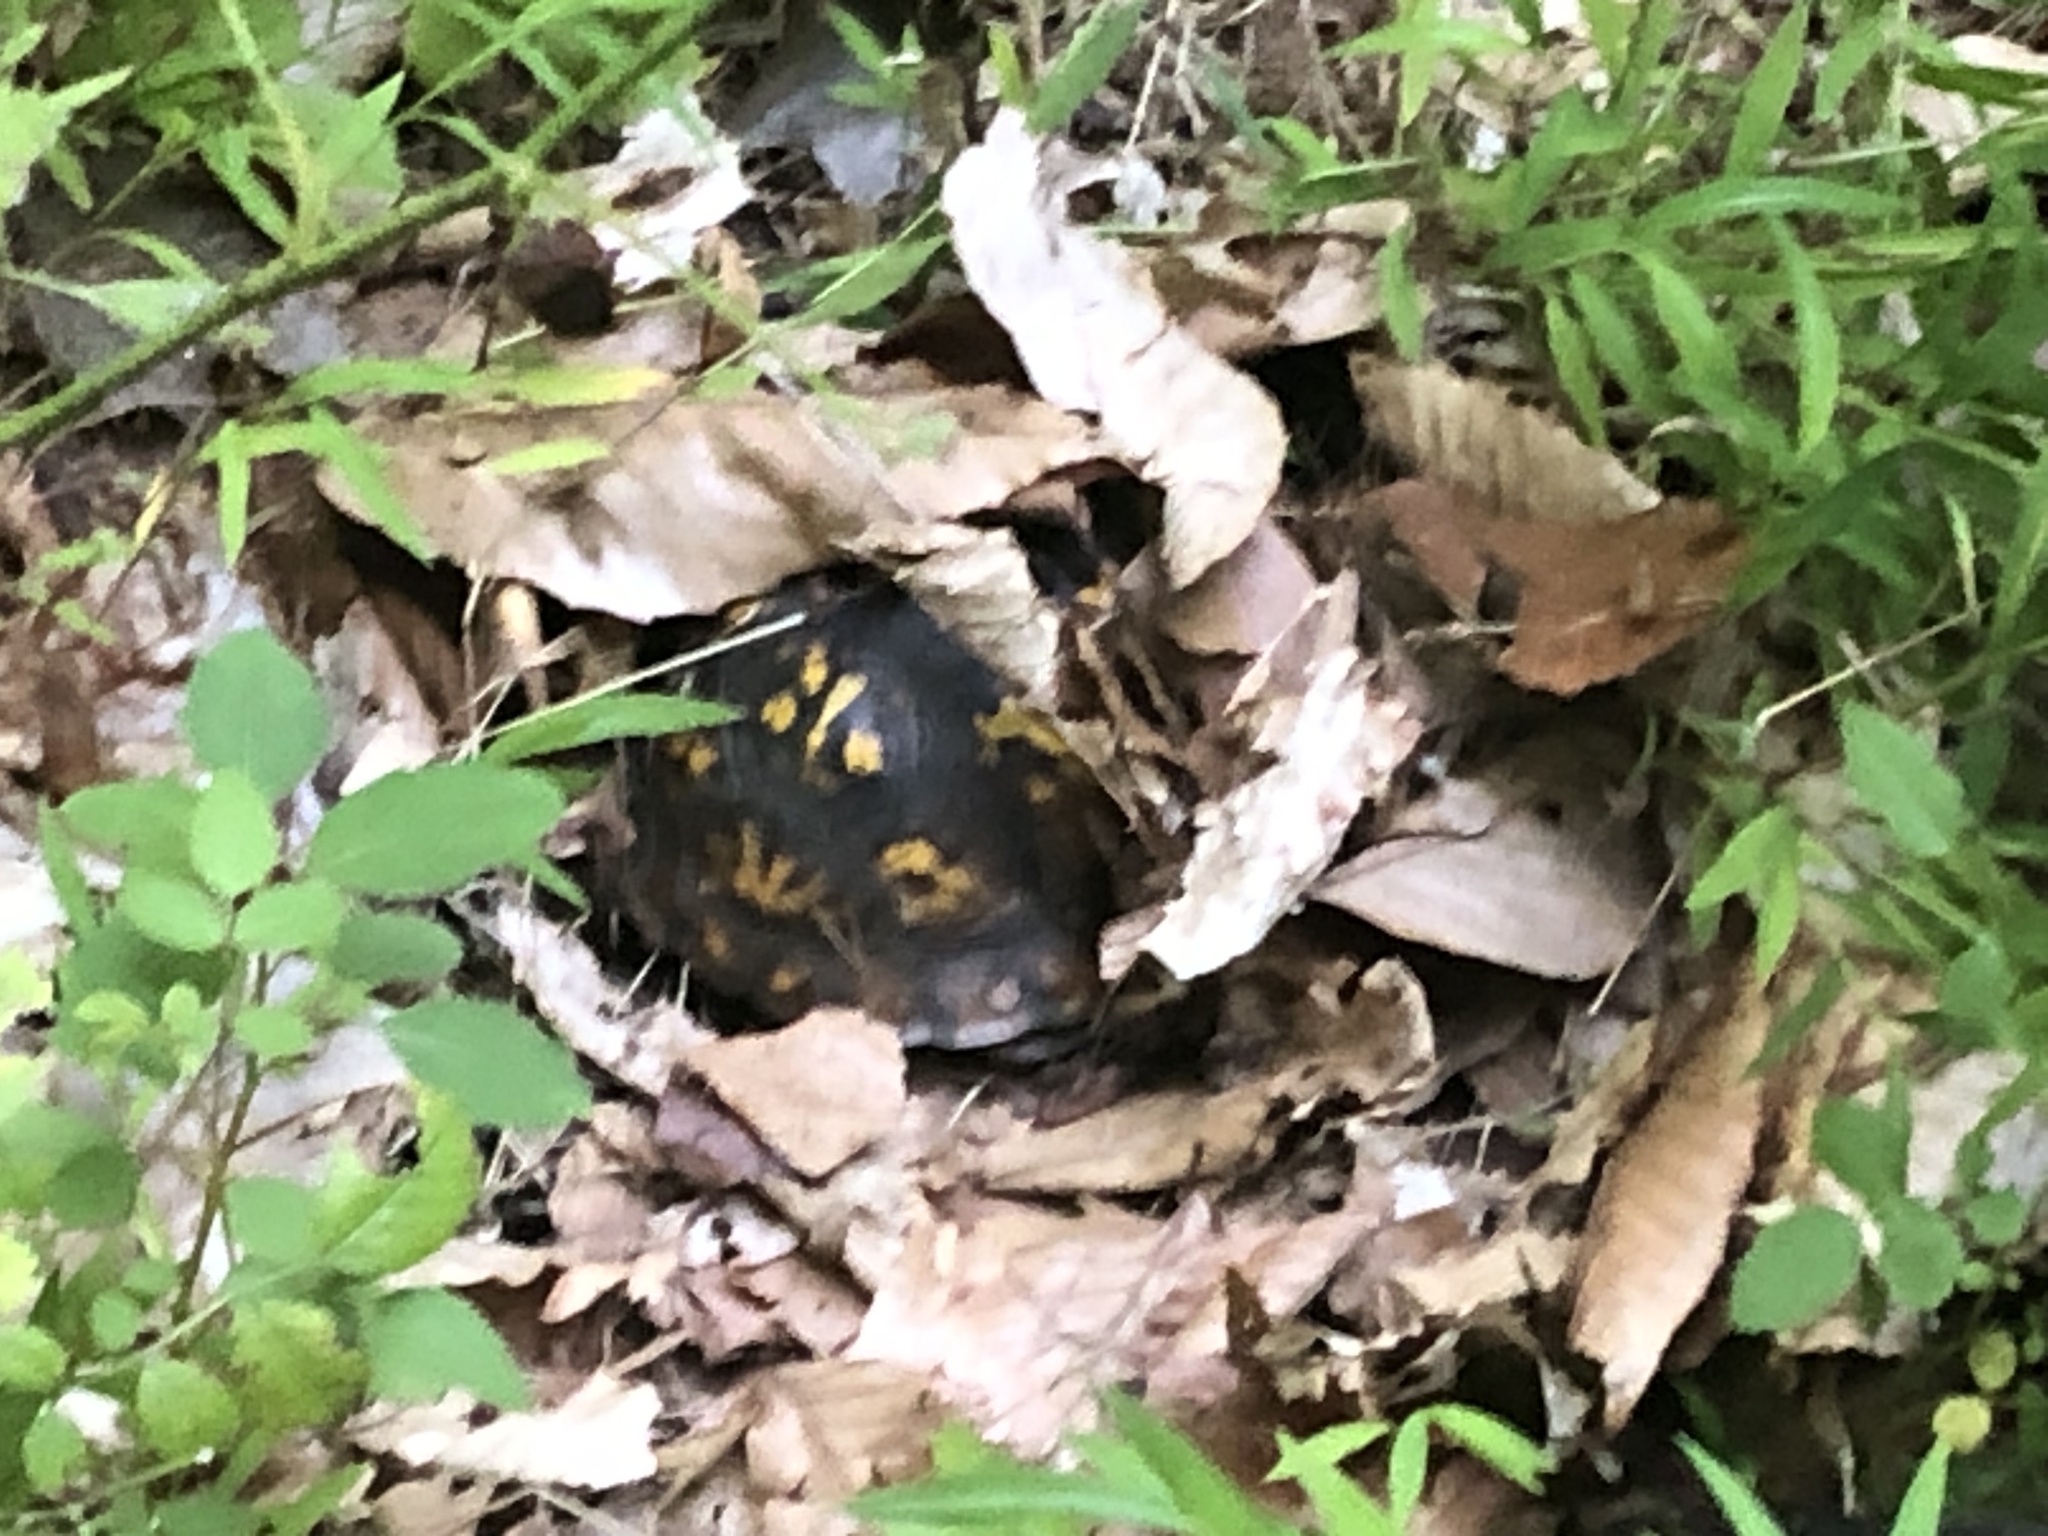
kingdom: Animalia
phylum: Chordata
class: Testudines
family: Emydidae
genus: Terrapene
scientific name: Terrapene carolina
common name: Common box turtle
